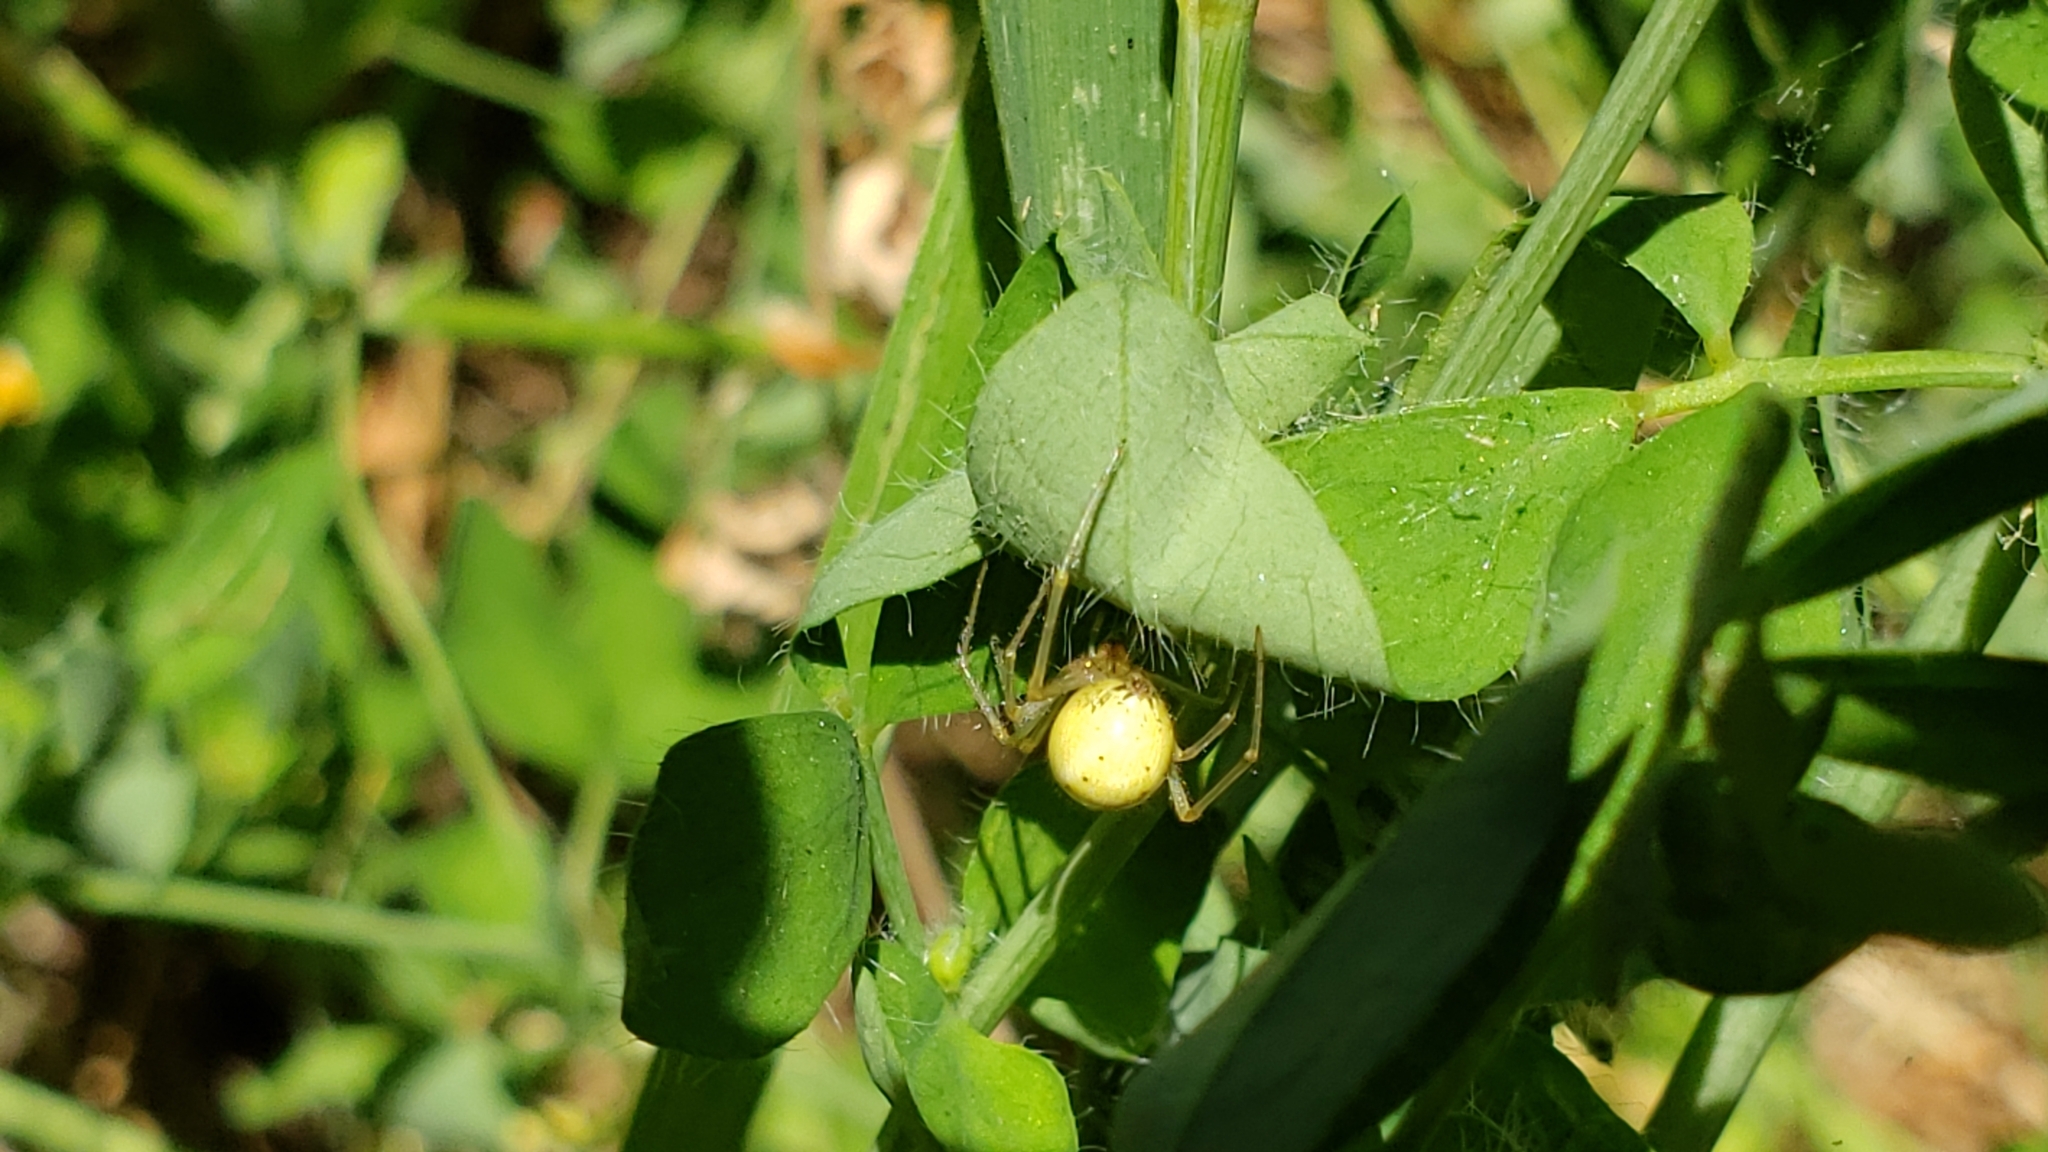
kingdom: Animalia
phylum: Arthropoda
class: Arachnida
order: Araneae
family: Theridiidae
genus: Enoplognatha
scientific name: Enoplognatha ovata
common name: Common candy-striped spider
